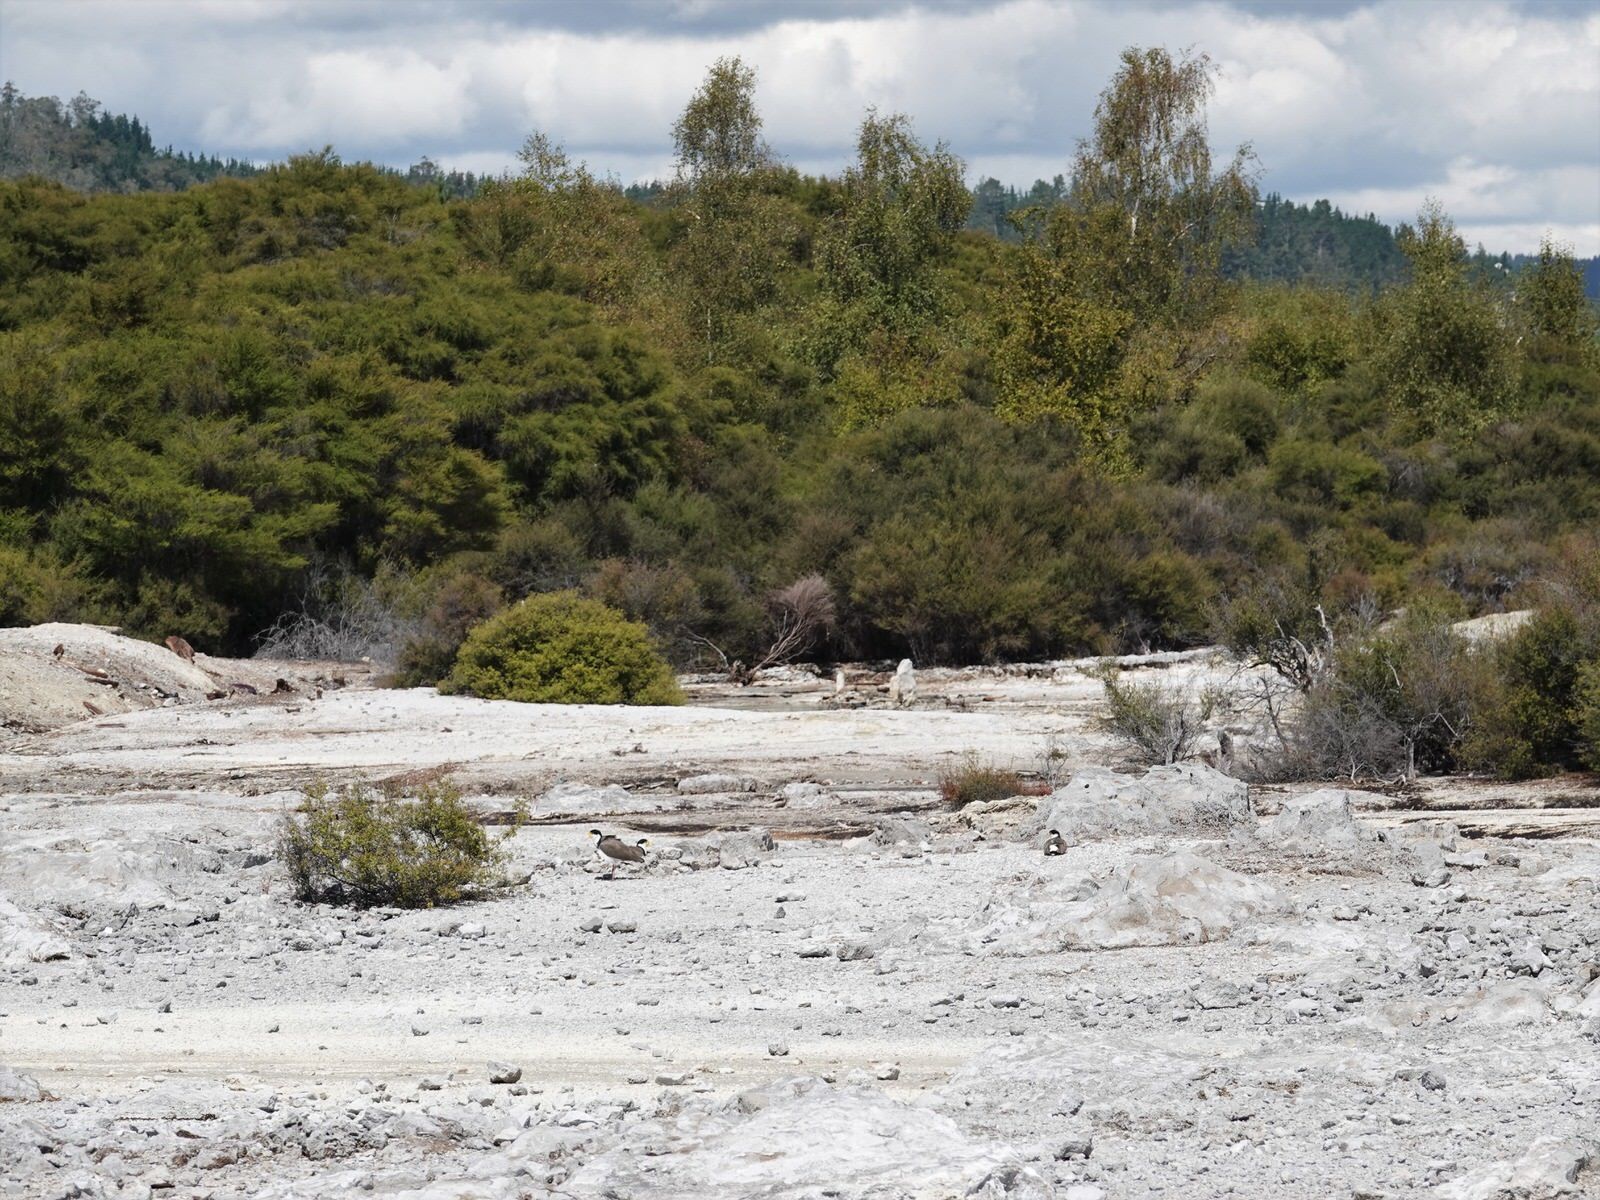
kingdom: Animalia
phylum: Chordata
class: Aves
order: Charadriiformes
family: Charadriidae
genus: Vanellus
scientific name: Vanellus miles
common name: Masked lapwing
